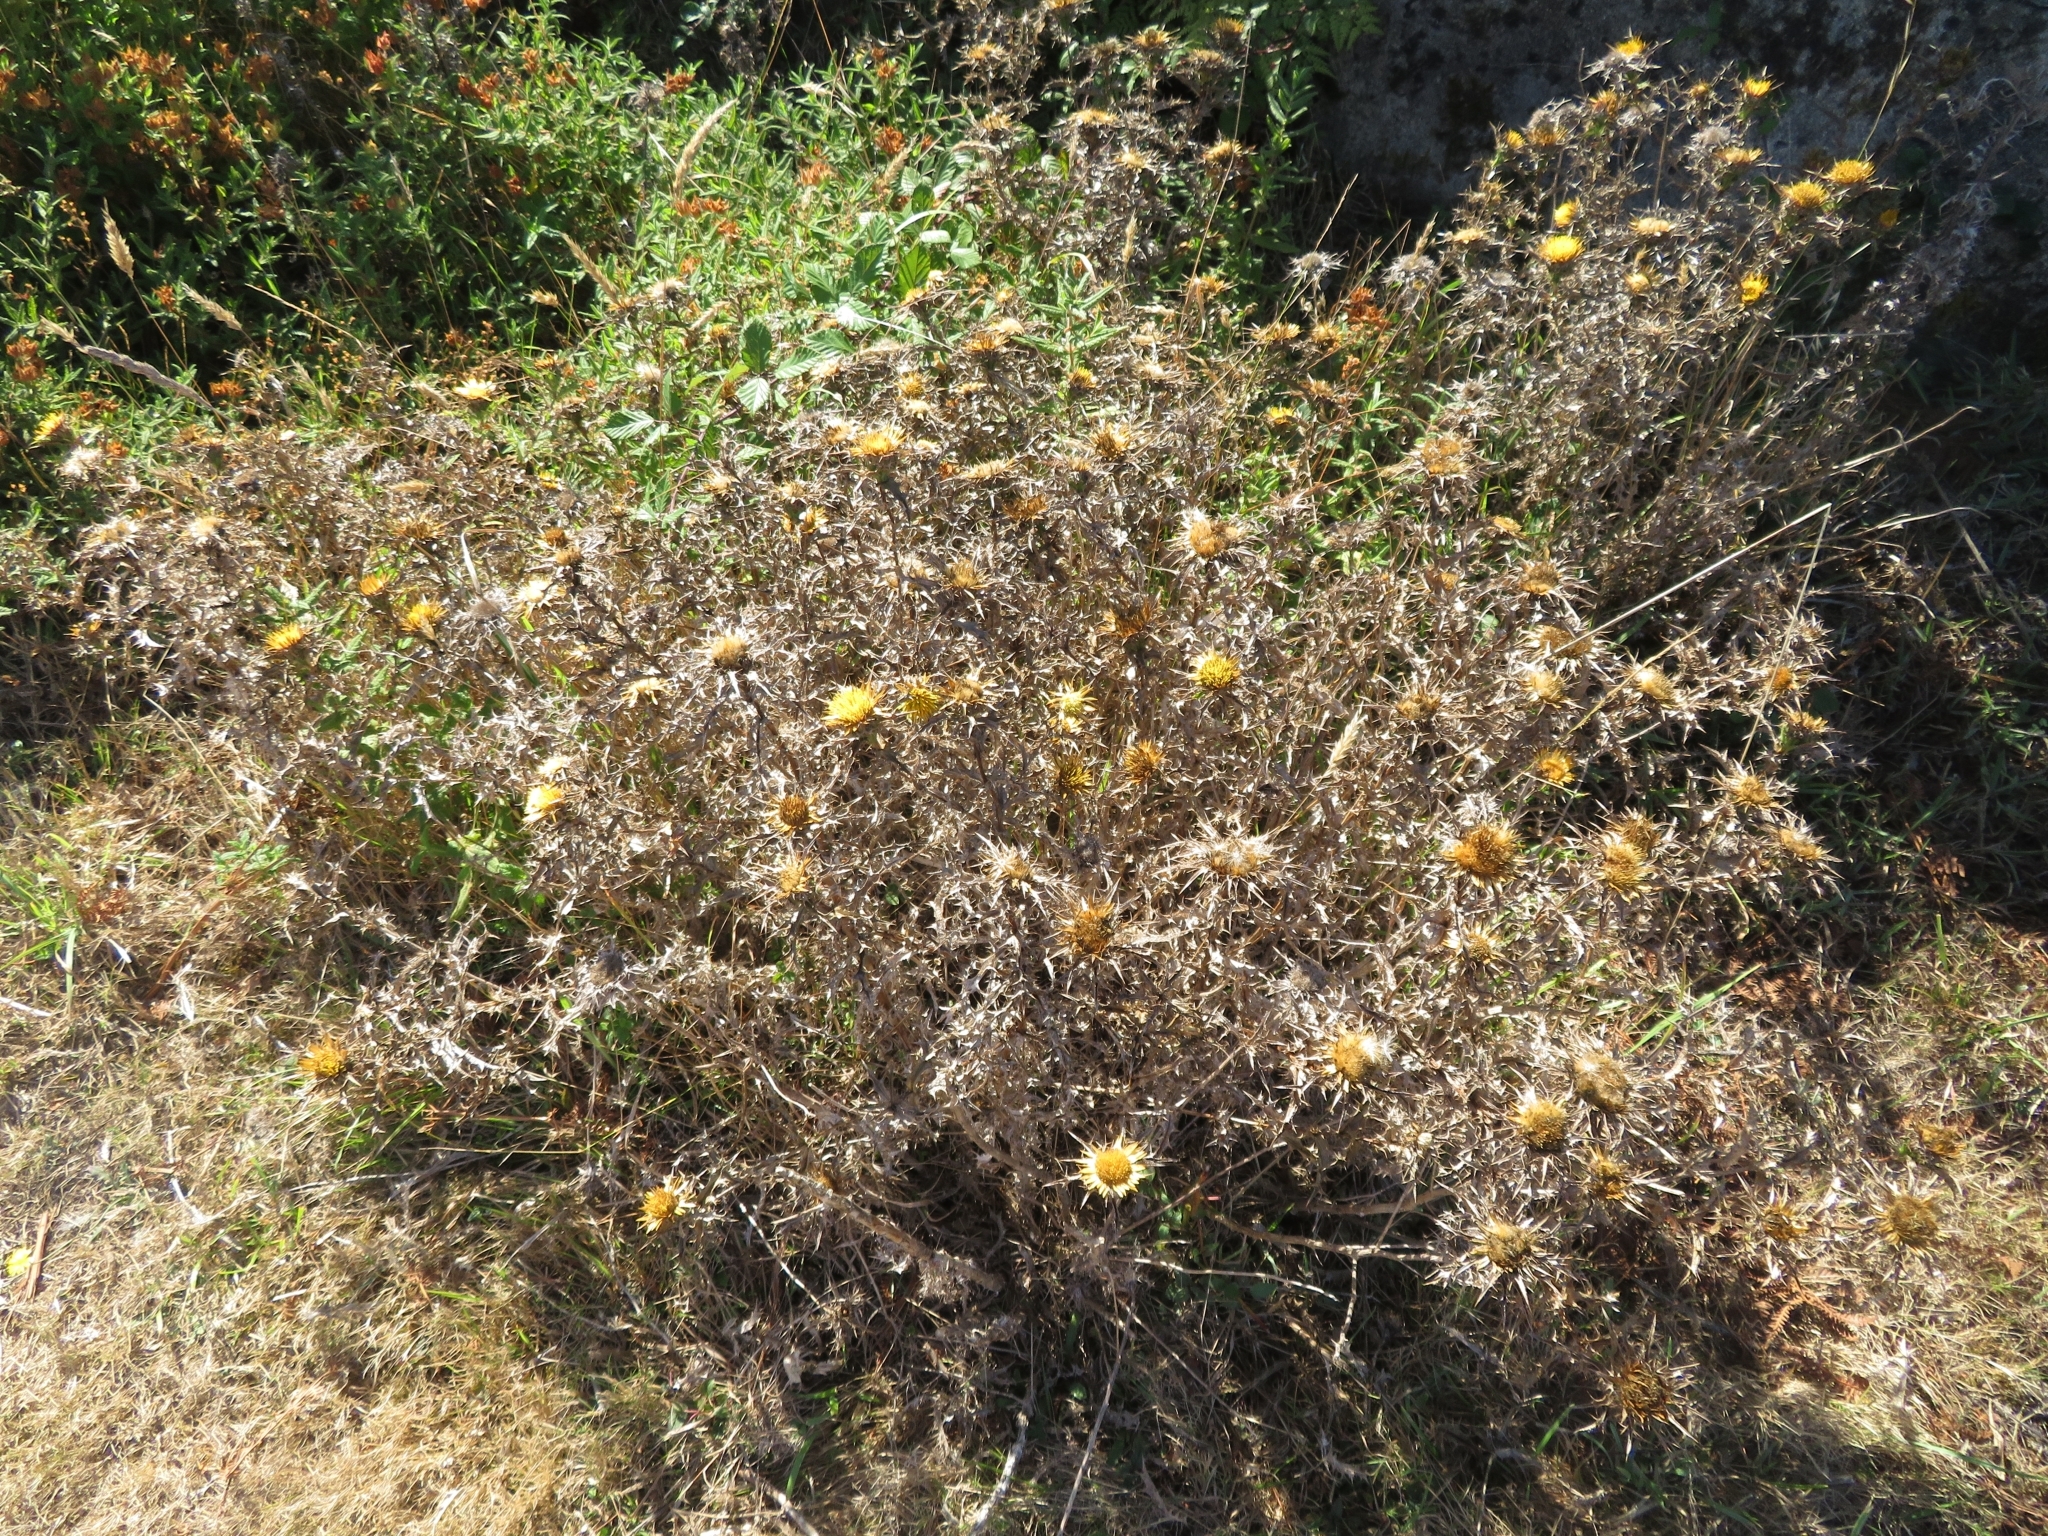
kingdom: Plantae
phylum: Tracheophyta
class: Magnoliopsida
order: Asterales
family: Asteraceae
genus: Carlina
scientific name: Carlina hispanica
